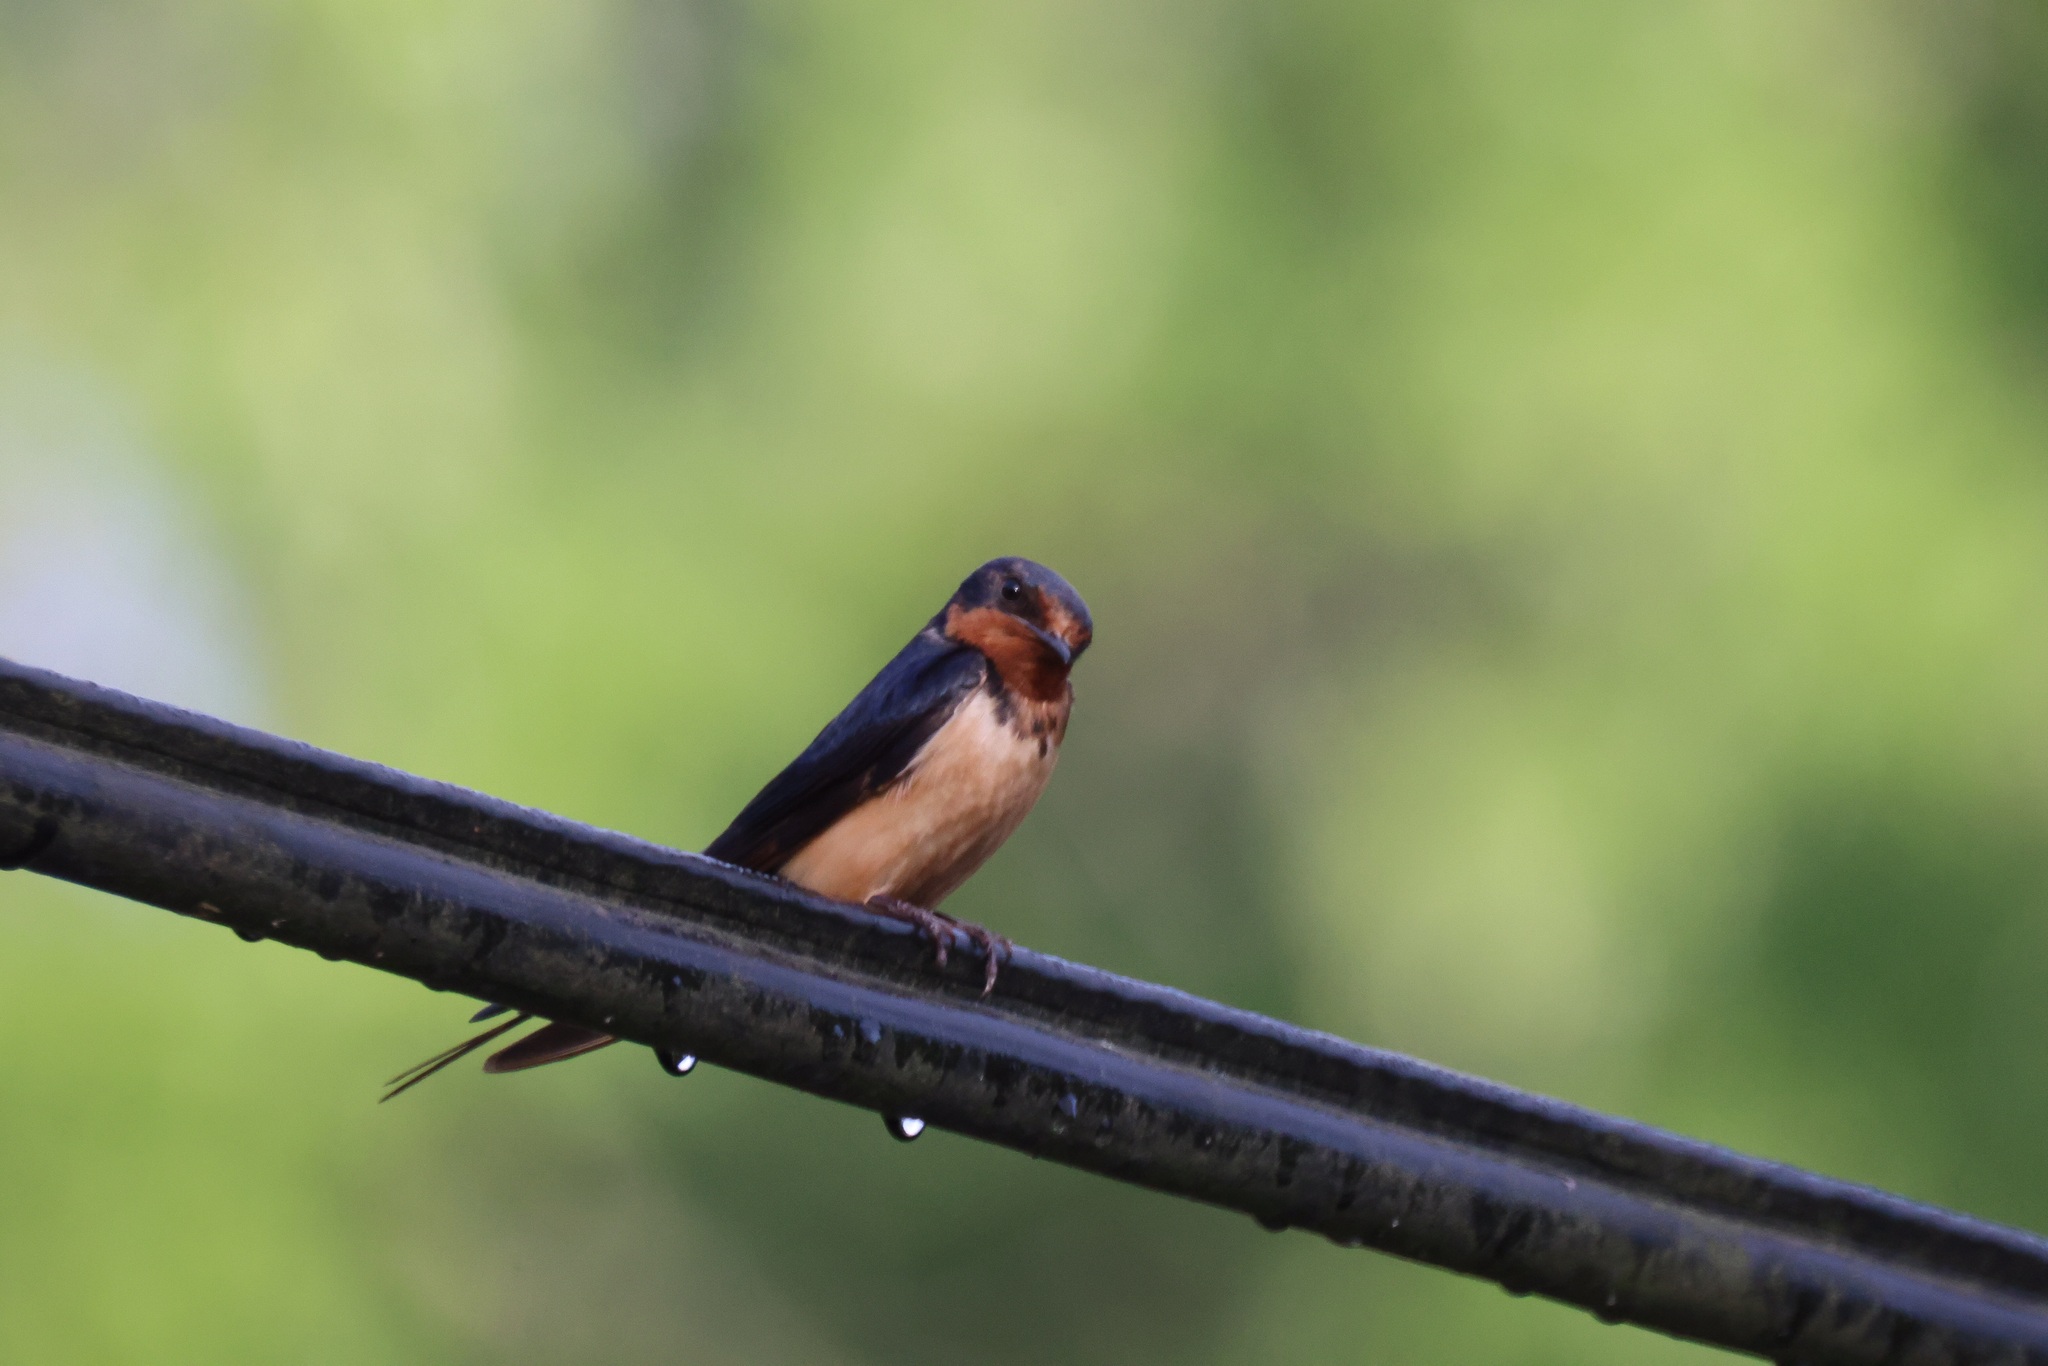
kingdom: Animalia
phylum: Chordata
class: Aves
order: Passeriformes
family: Hirundinidae
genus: Hirundo
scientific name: Hirundo rustica
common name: Barn swallow
